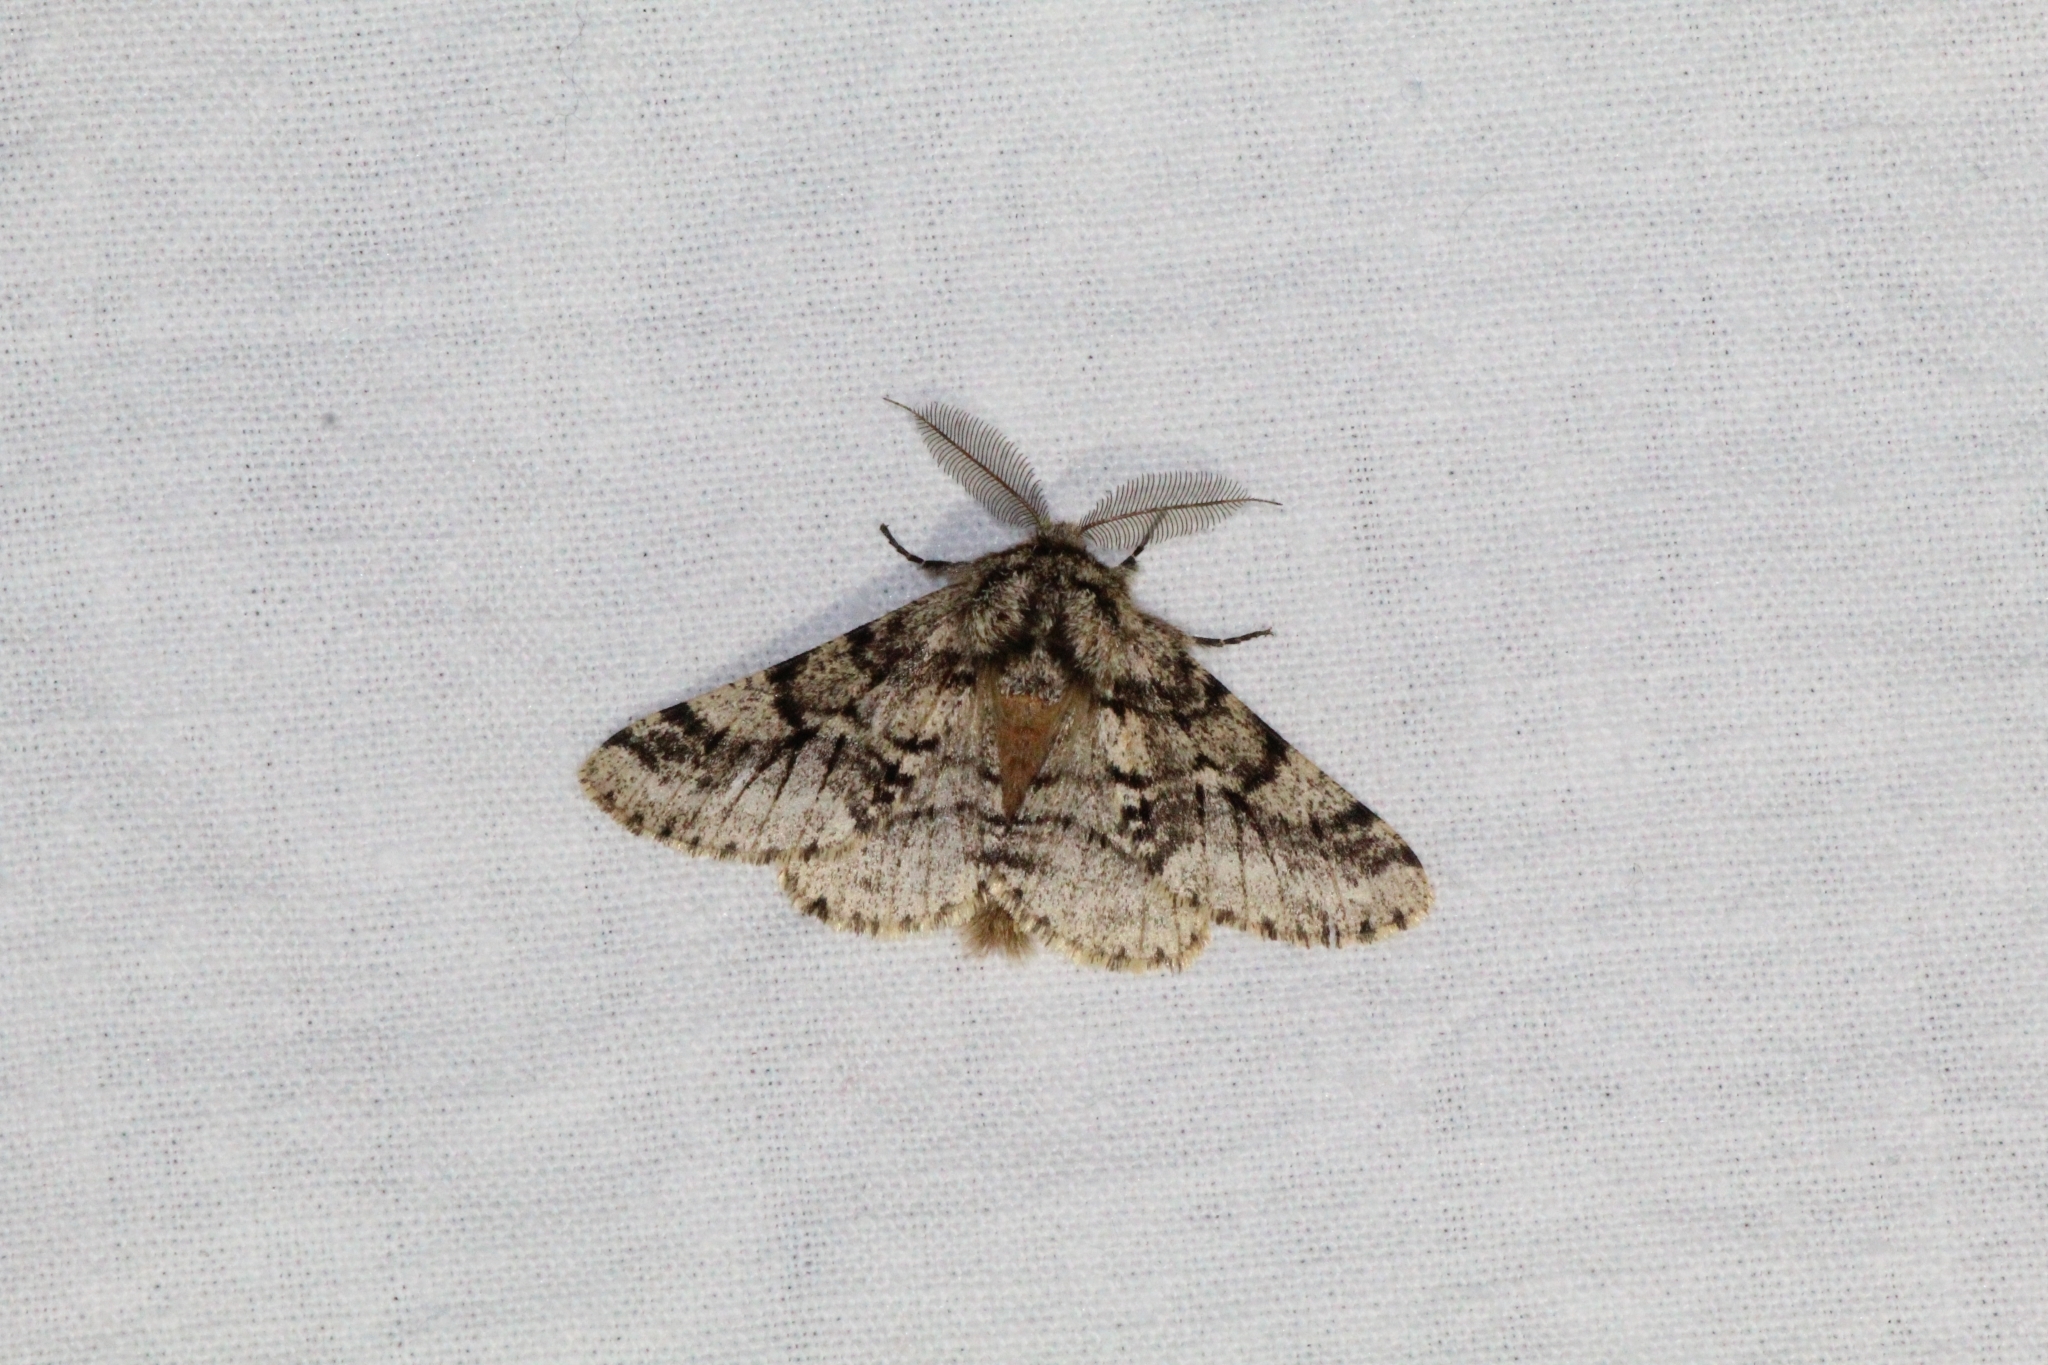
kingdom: Animalia
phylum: Arthropoda
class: Insecta
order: Lepidoptera
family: Geometridae
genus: Lycia
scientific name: Lycia hirtaria
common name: Brindled beauty
